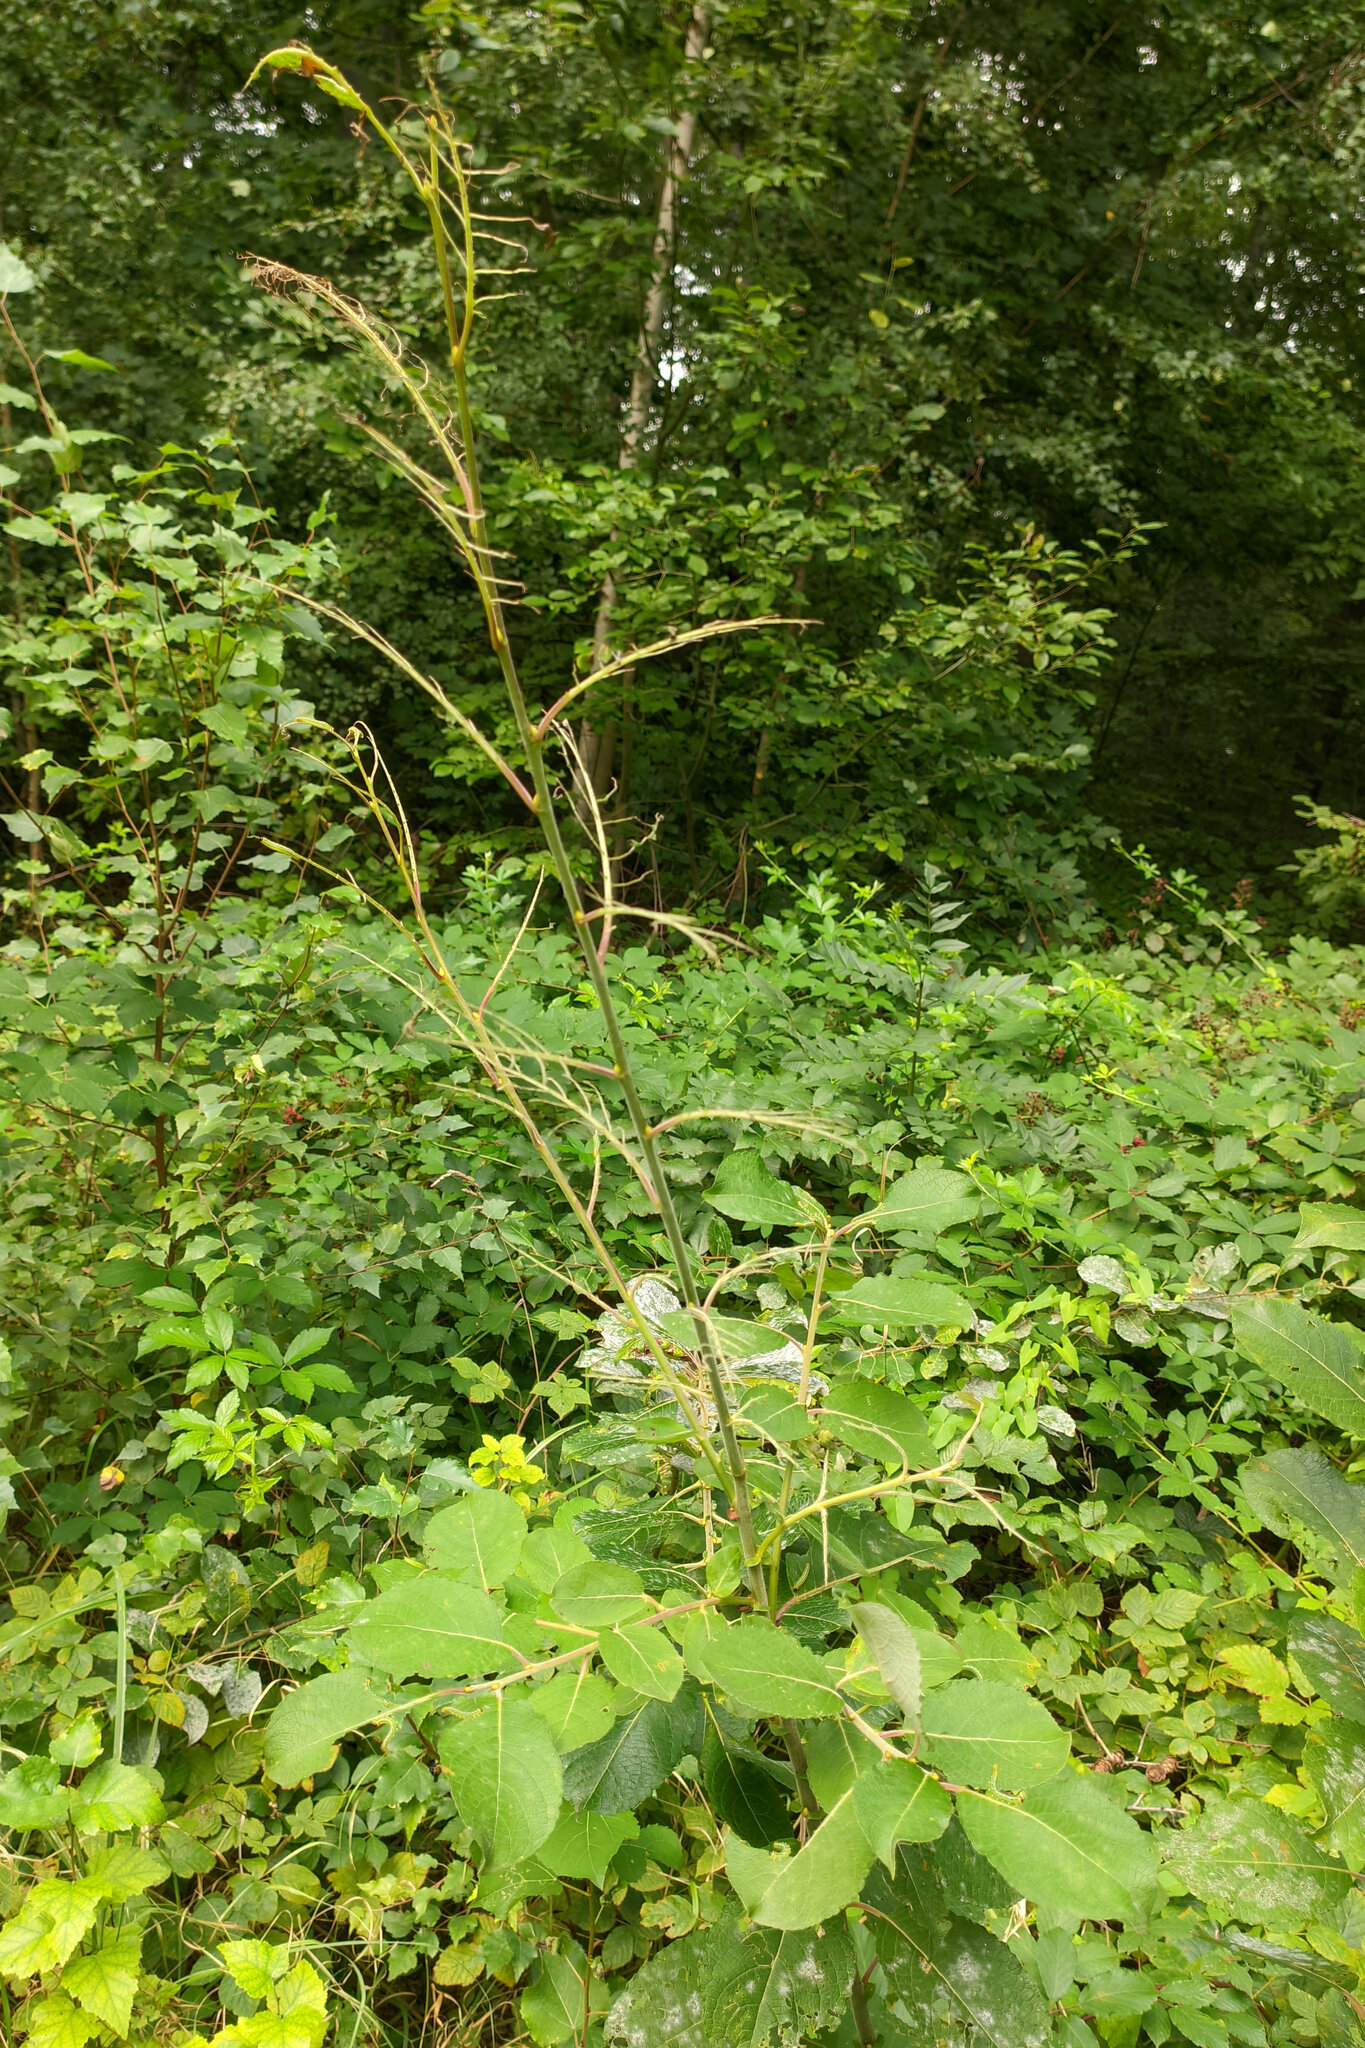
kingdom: Animalia
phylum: Arthropoda
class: Insecta
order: Hymenoptera
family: Tenthredinidae
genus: Nematus
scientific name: Nematus pavidus
